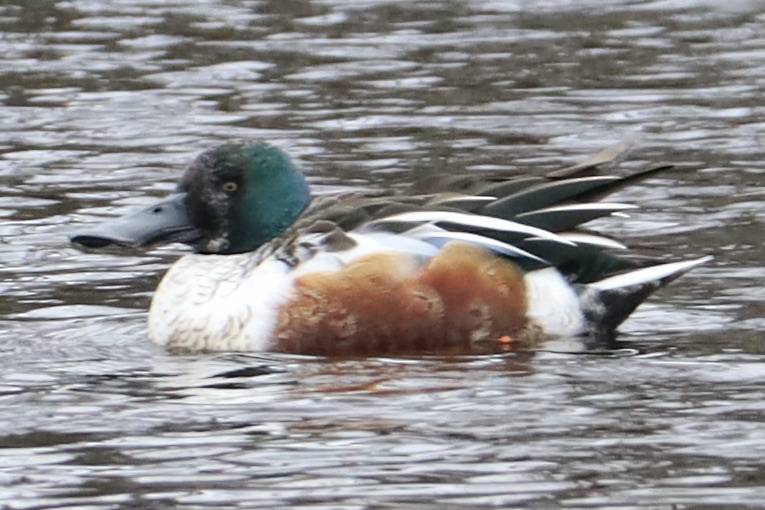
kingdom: Animalia
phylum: Chordata
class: Aves
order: Anseriformes
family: Anatidae
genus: Spatula
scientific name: Spatula clypeata
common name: Northern shoveler
